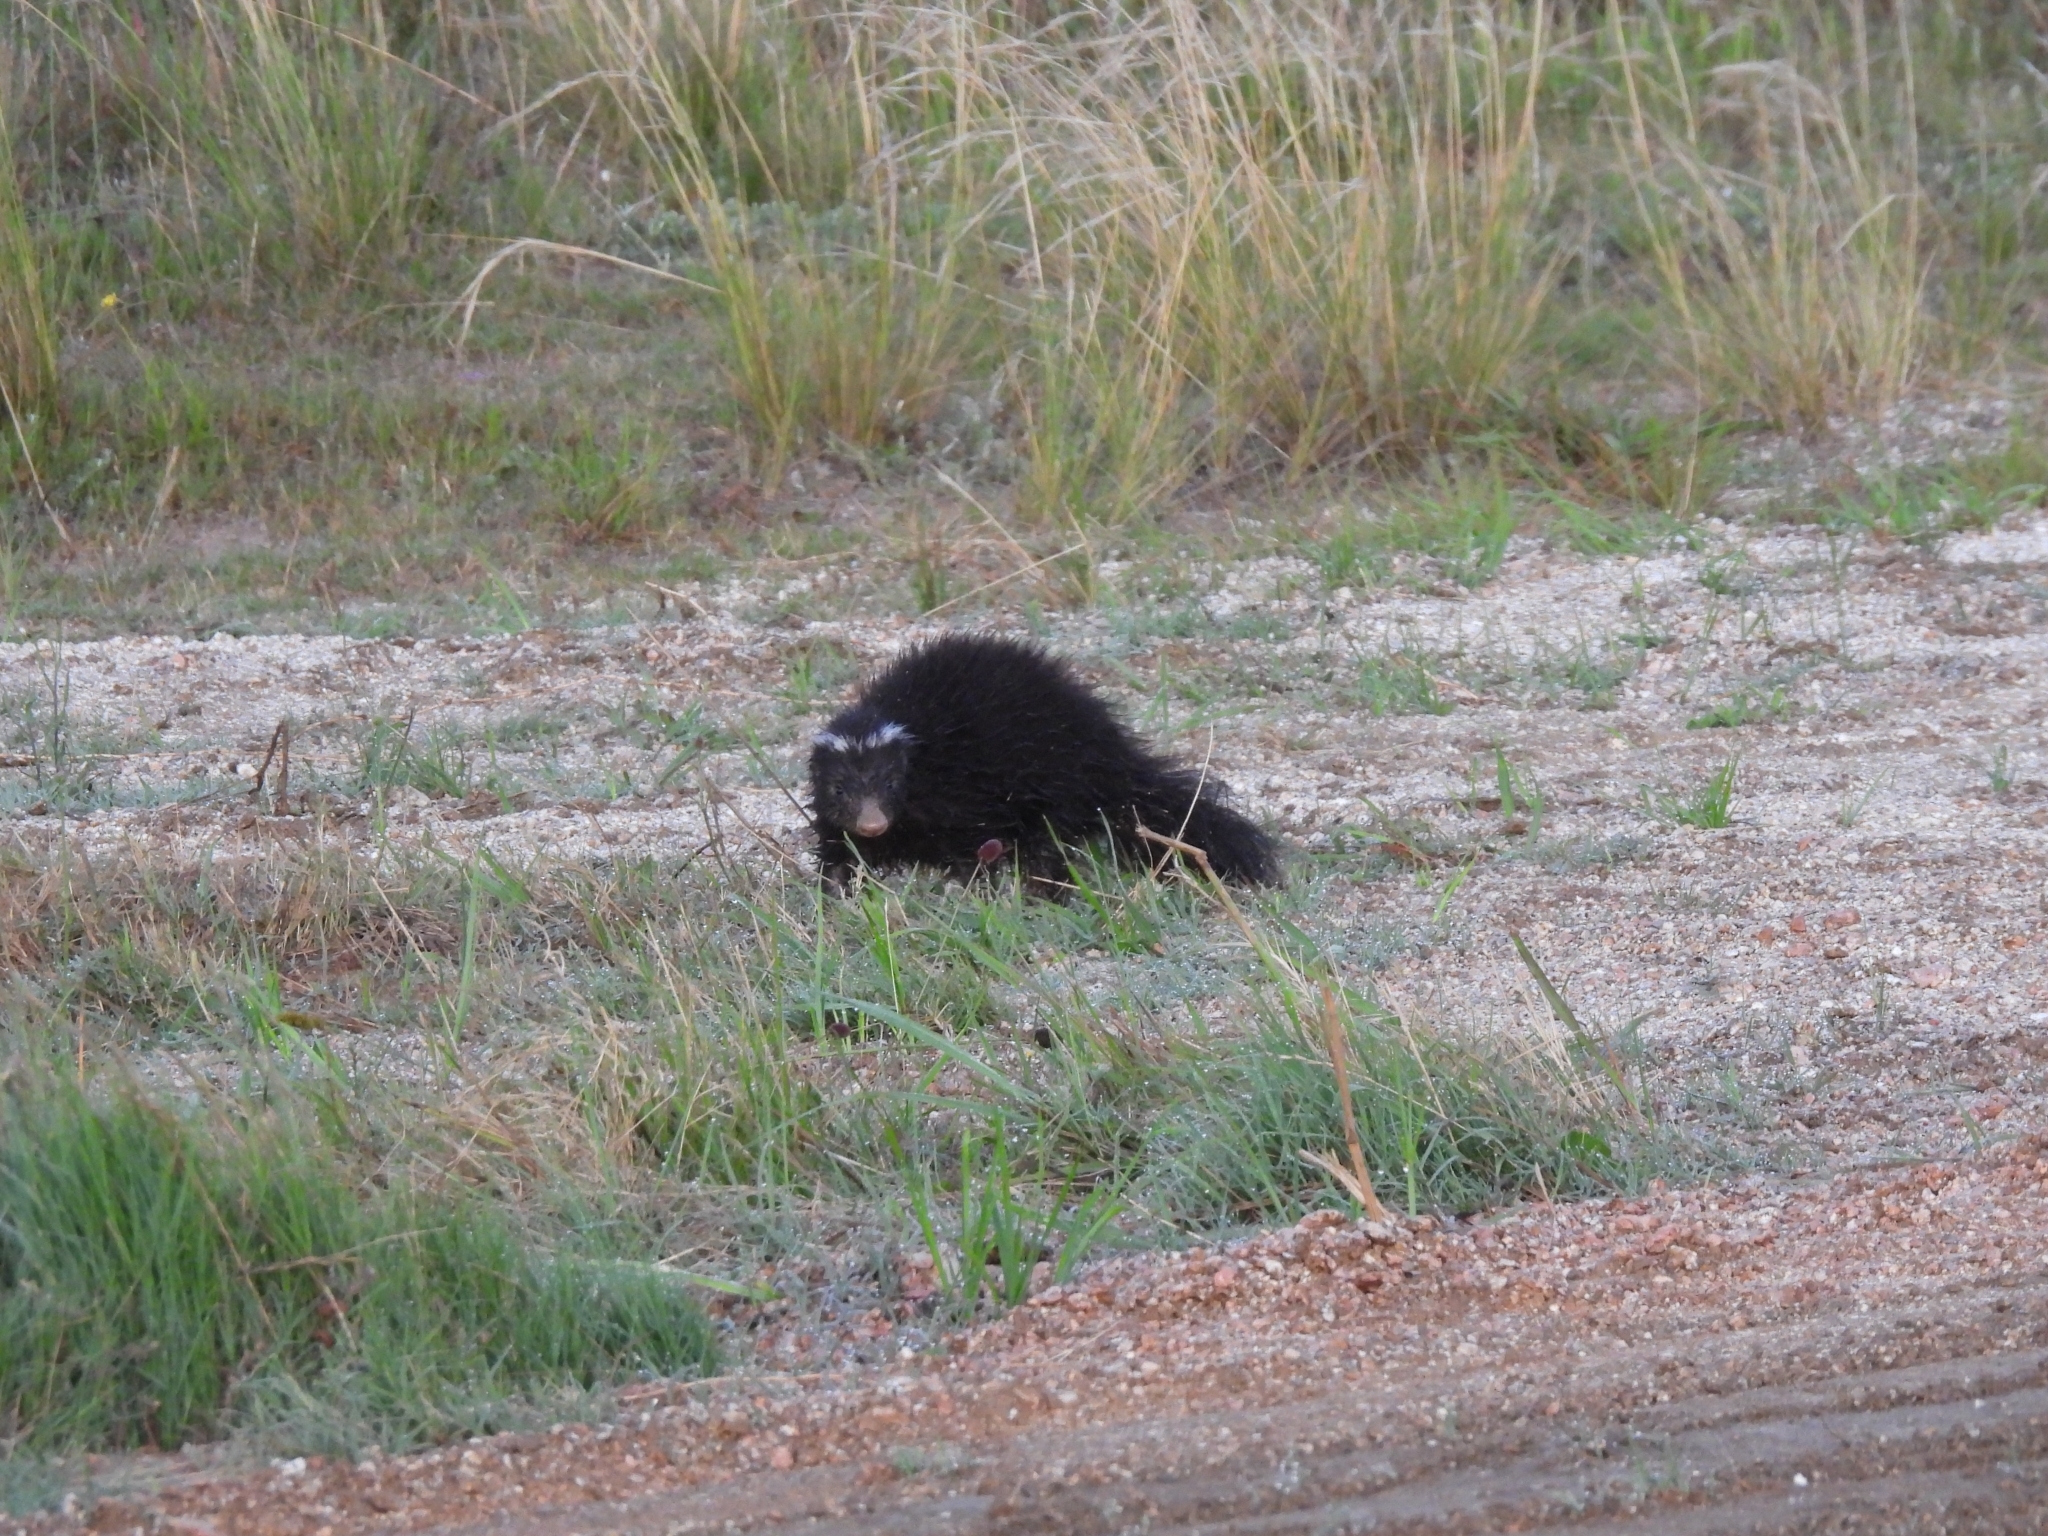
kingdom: Animalia
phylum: Chordata
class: Mammalia
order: Carnivora
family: Mephitidae
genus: Conepatus
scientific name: Conepatus chinga
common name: Molina's hog-nosed skunk
